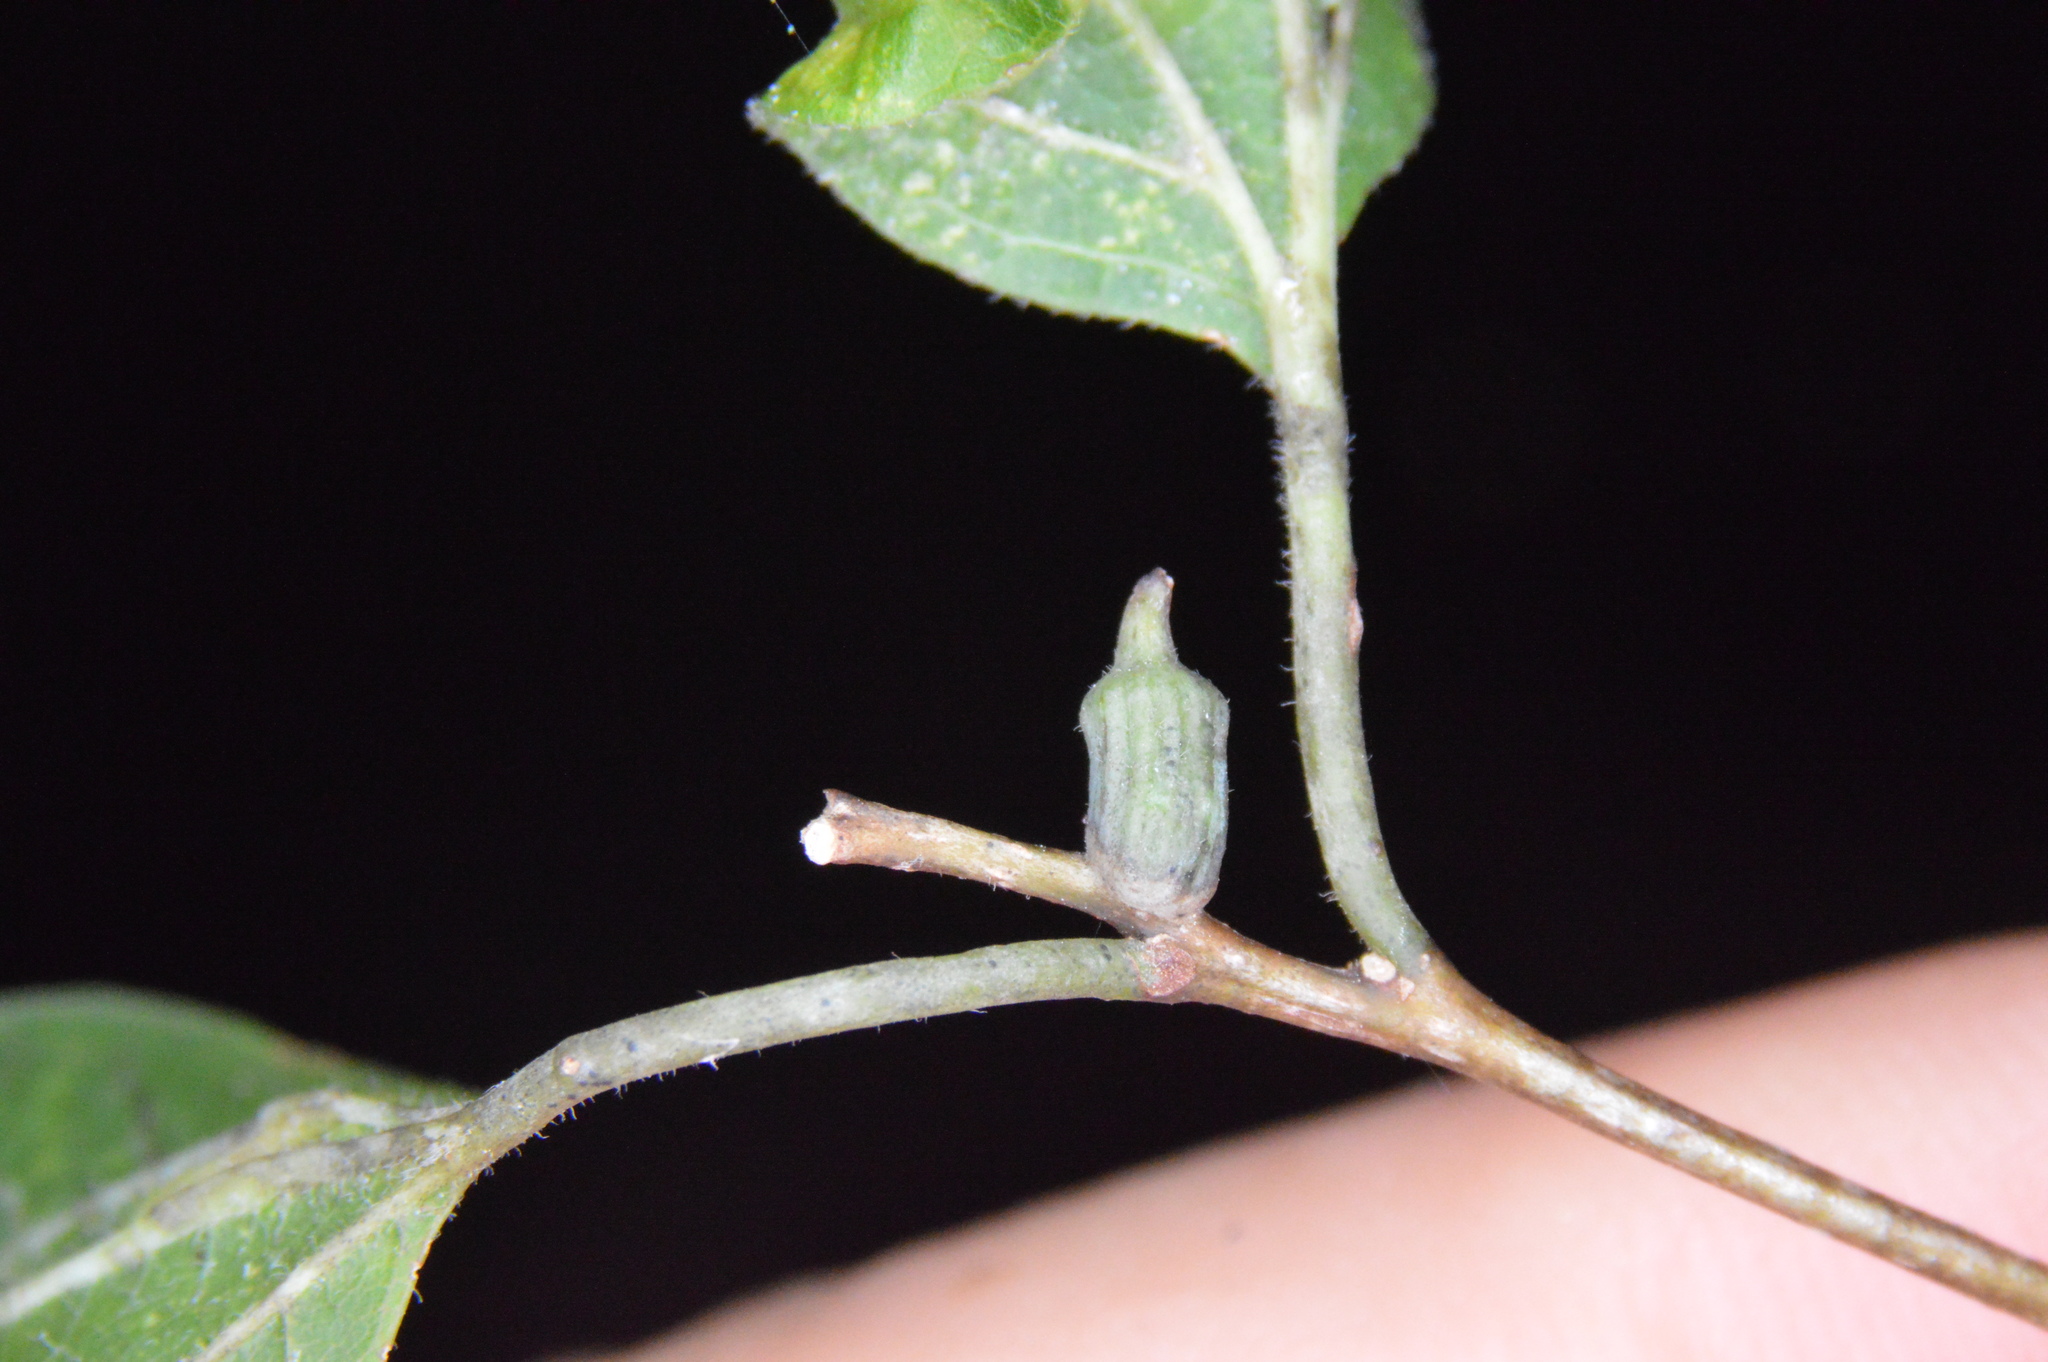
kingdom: Animalia
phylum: Arthropoda
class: Insecta
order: Diptera
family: Cecidomyiidae
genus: Celticecis
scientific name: Celticecis ramicola
